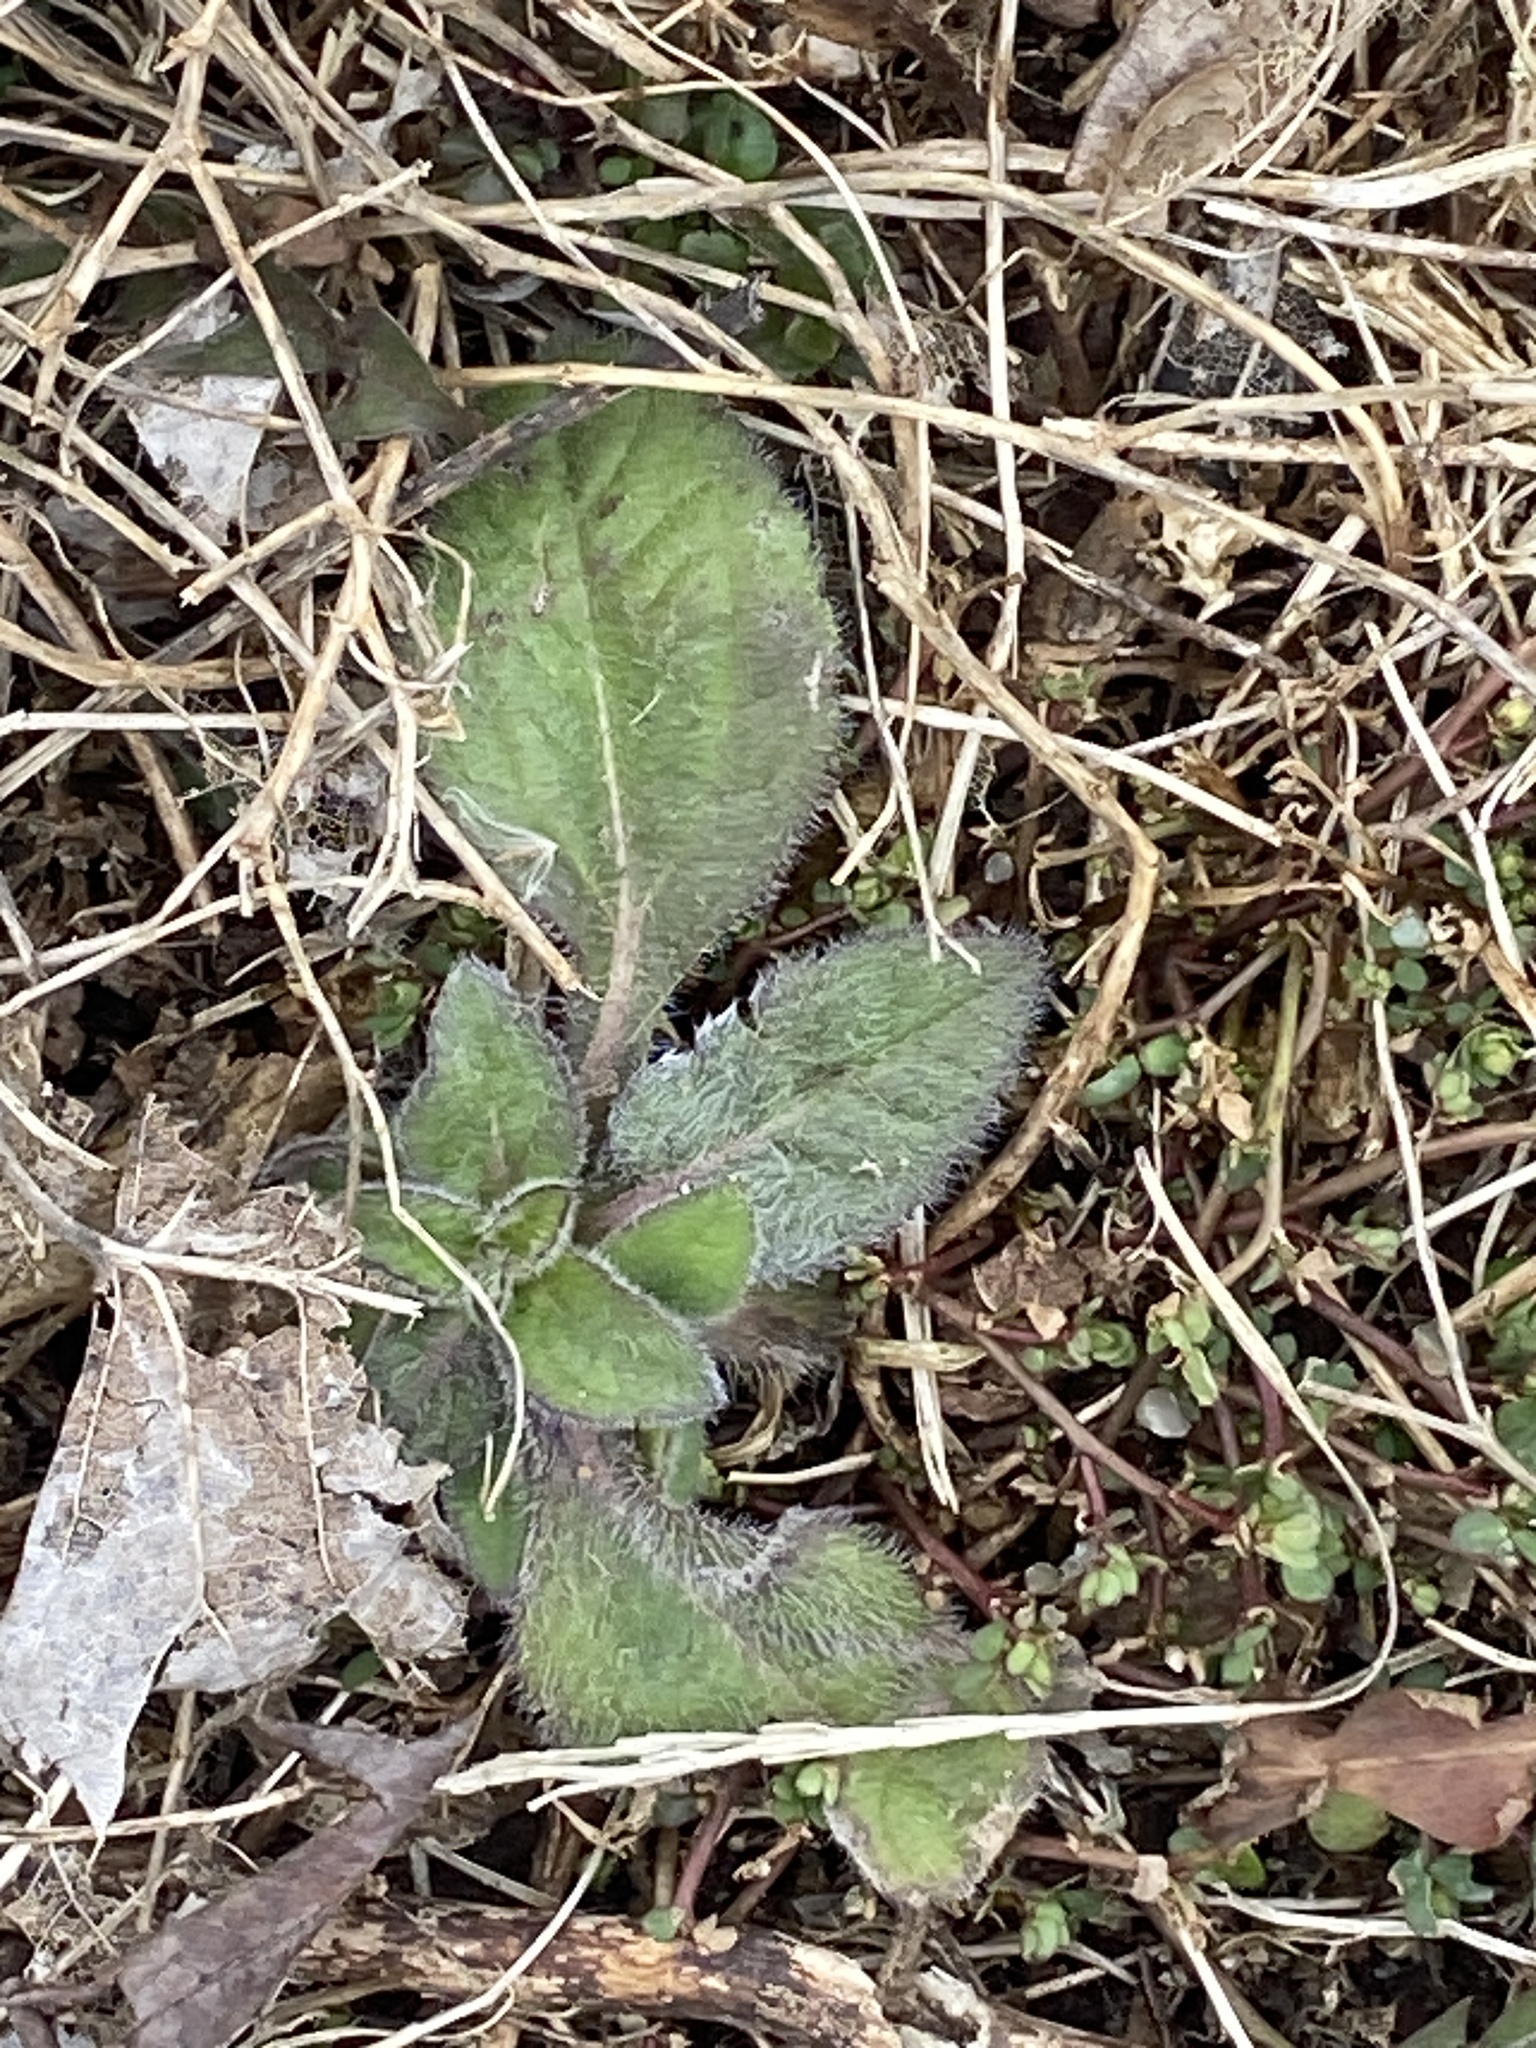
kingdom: Plantae
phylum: Tracheophyta
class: Magnoliopsida
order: Asterales
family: Asteraceae
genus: Rudbeckia
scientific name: Rudbeckia hirta
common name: Black-eyed-susan
